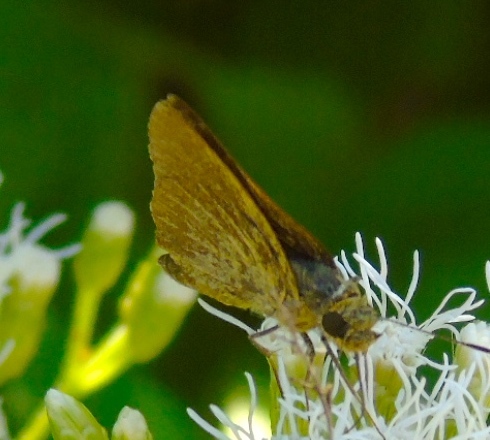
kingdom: Animalia
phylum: Arthropoda
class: Insecta
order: Lepidoptera
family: Hesperiidae
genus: Nastra
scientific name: Nastra julia
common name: Julia's skipper
